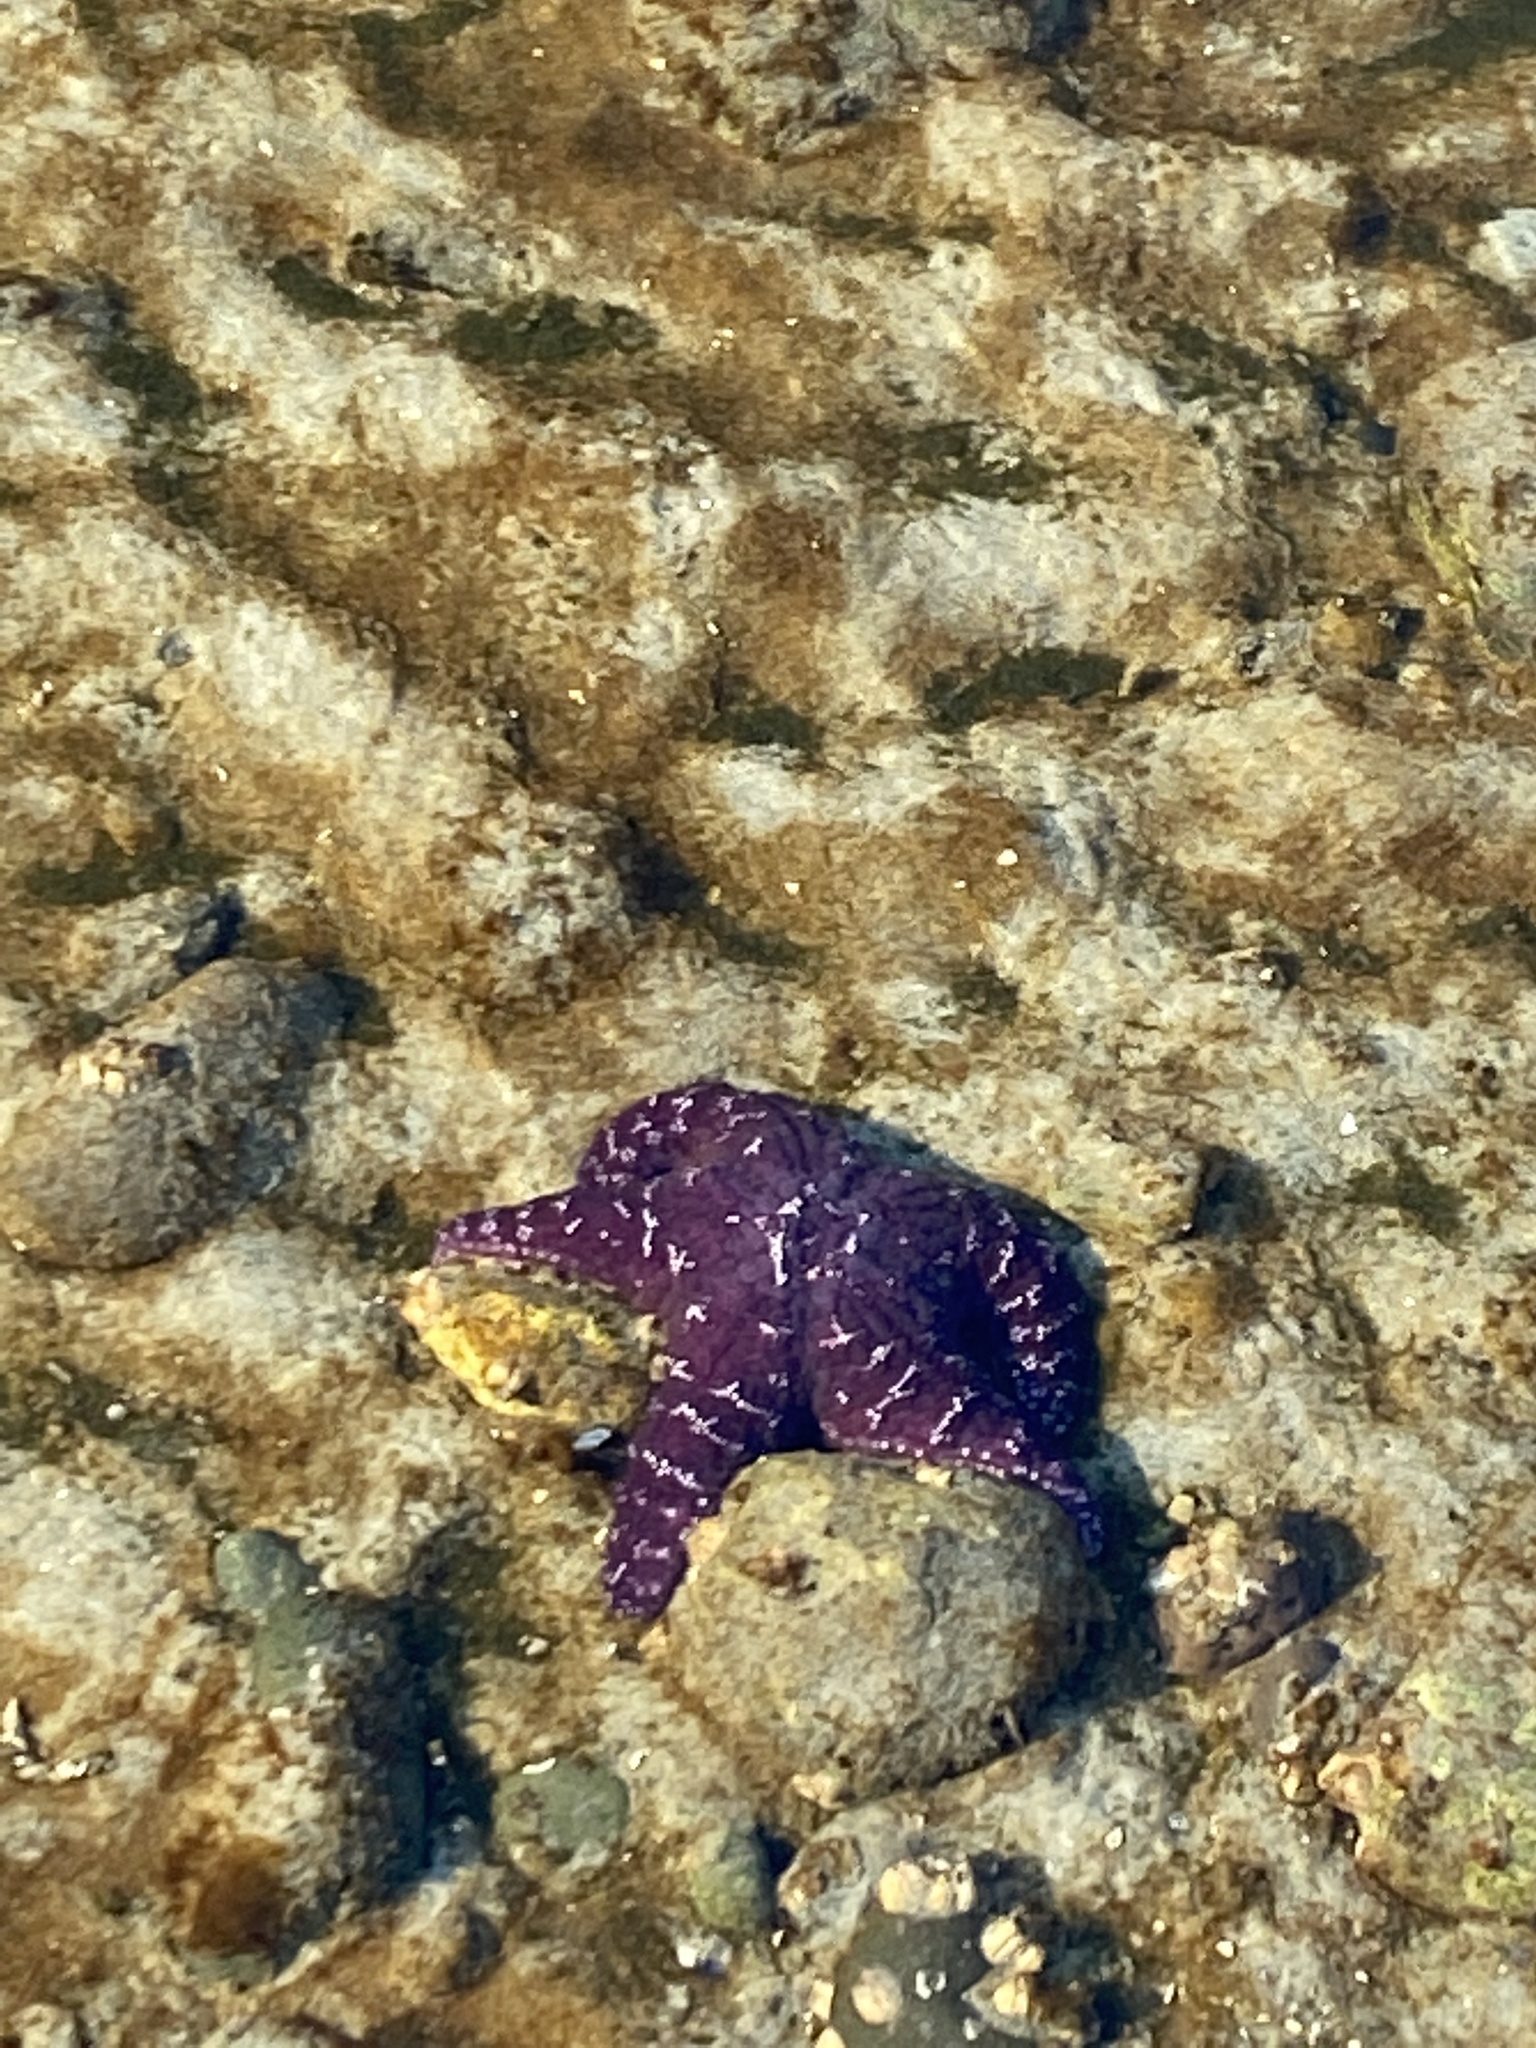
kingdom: Animalia
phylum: Echinodermata
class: Asteroidea
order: Forcipulatida
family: Asteriidae
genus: Pisaster
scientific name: Pisaster ochraceus
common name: Ochre stars
